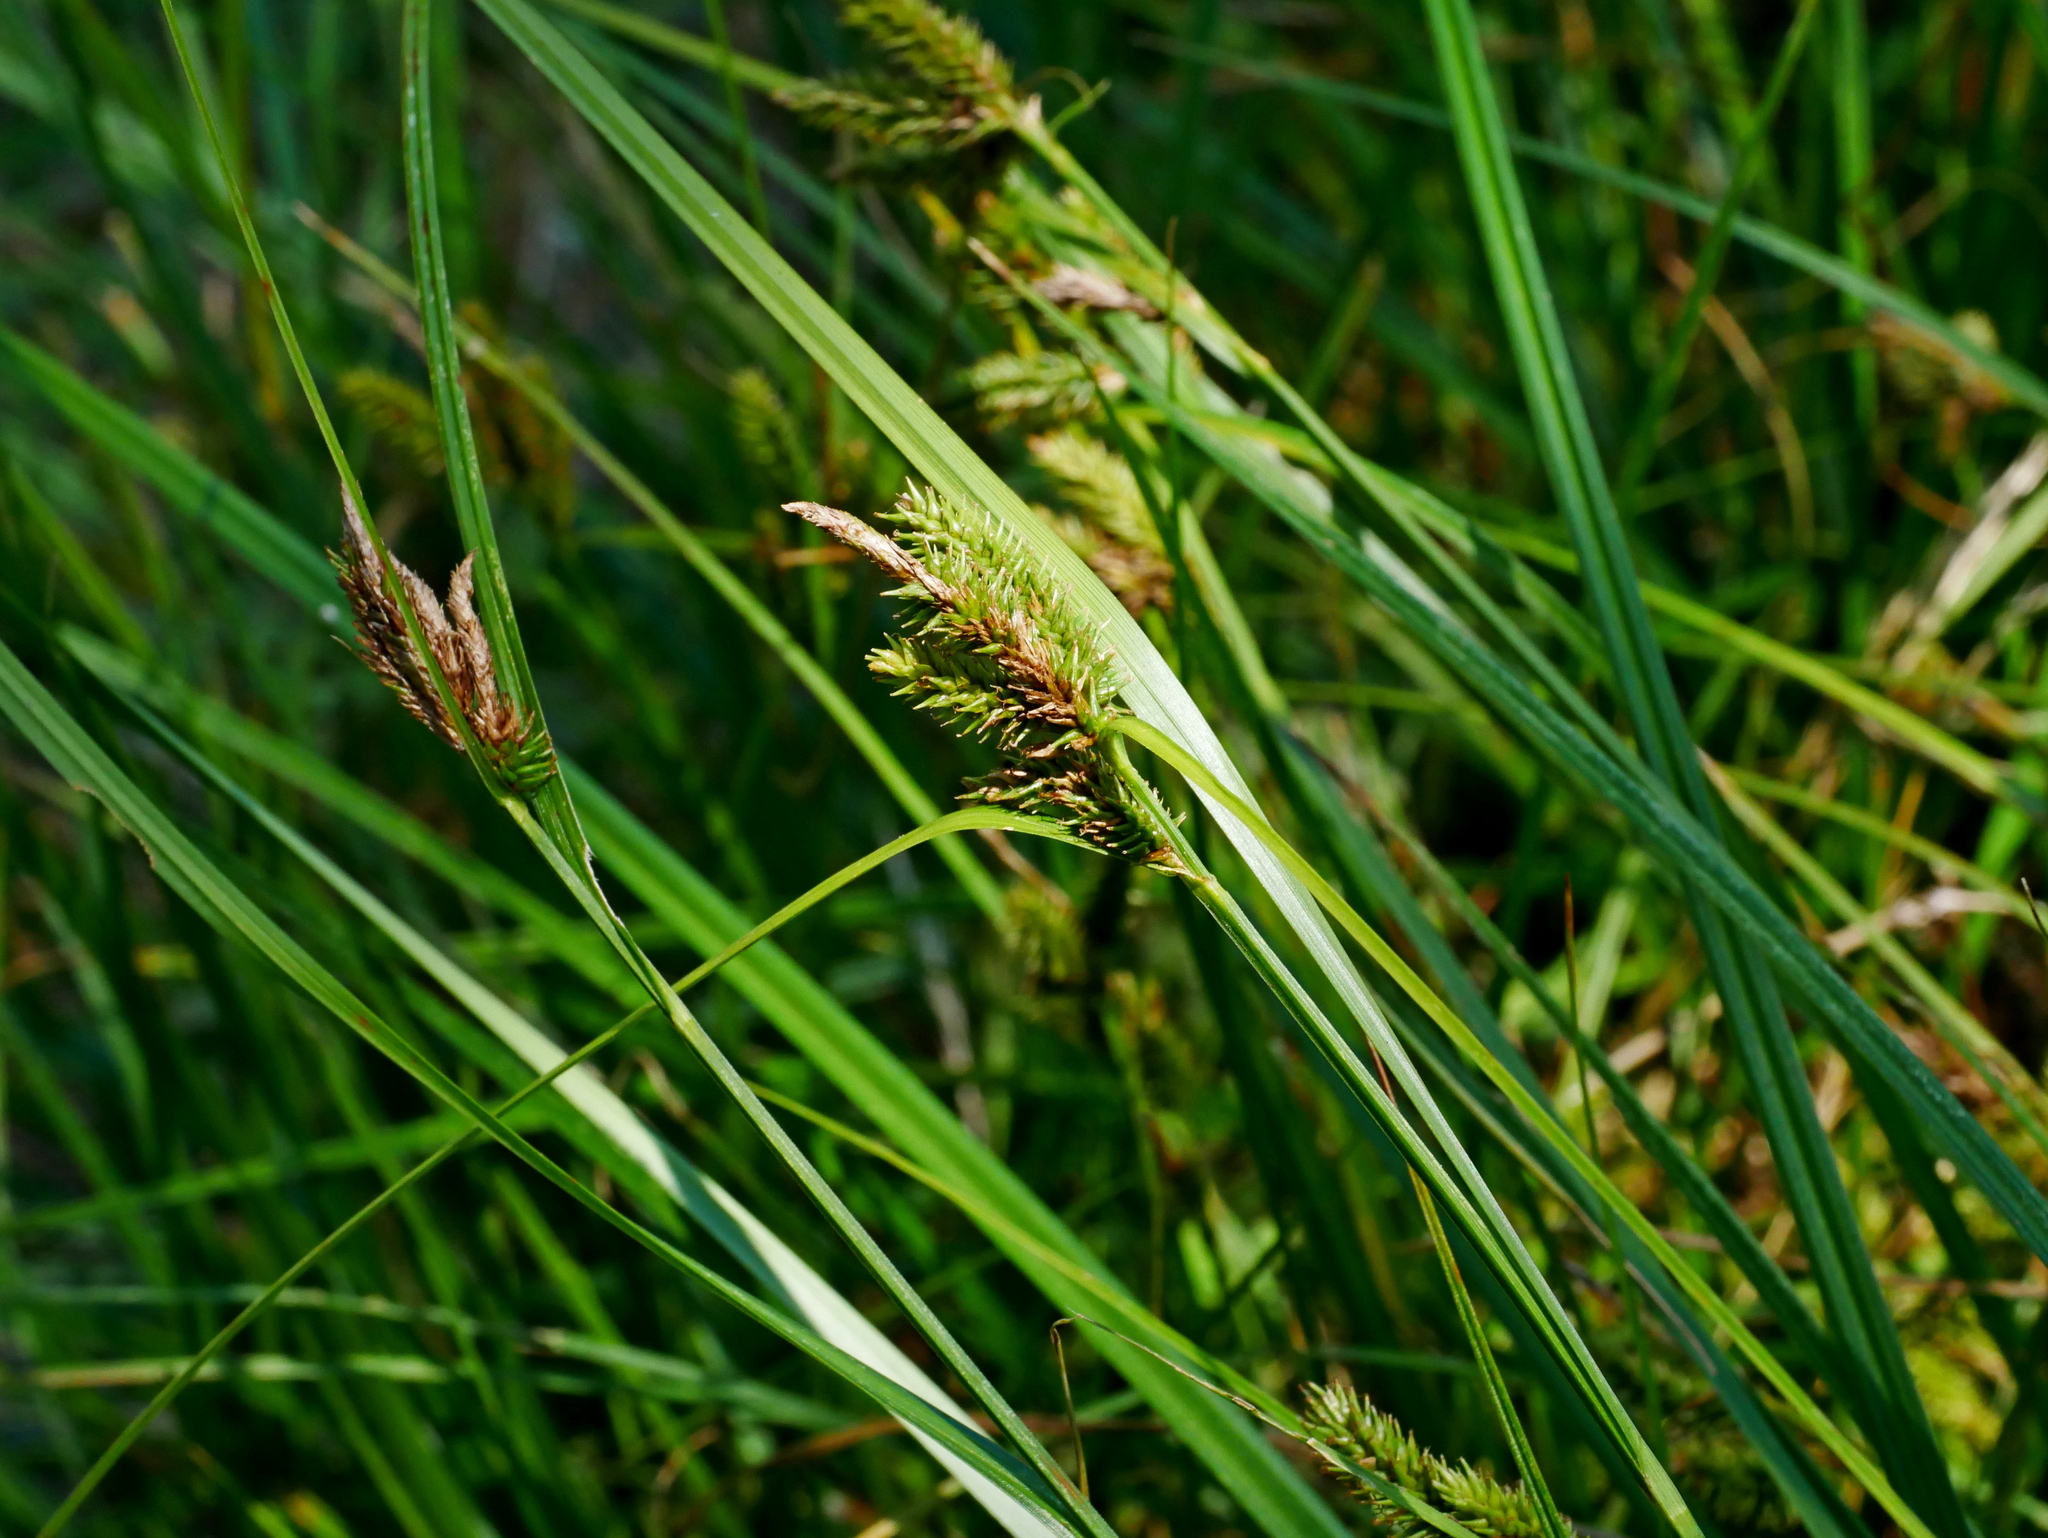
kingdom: Plantae
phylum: Tracheophyta
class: Liliopsida
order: Poales
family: Cyperaceae
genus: Carex
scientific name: Carex alopecuroides
